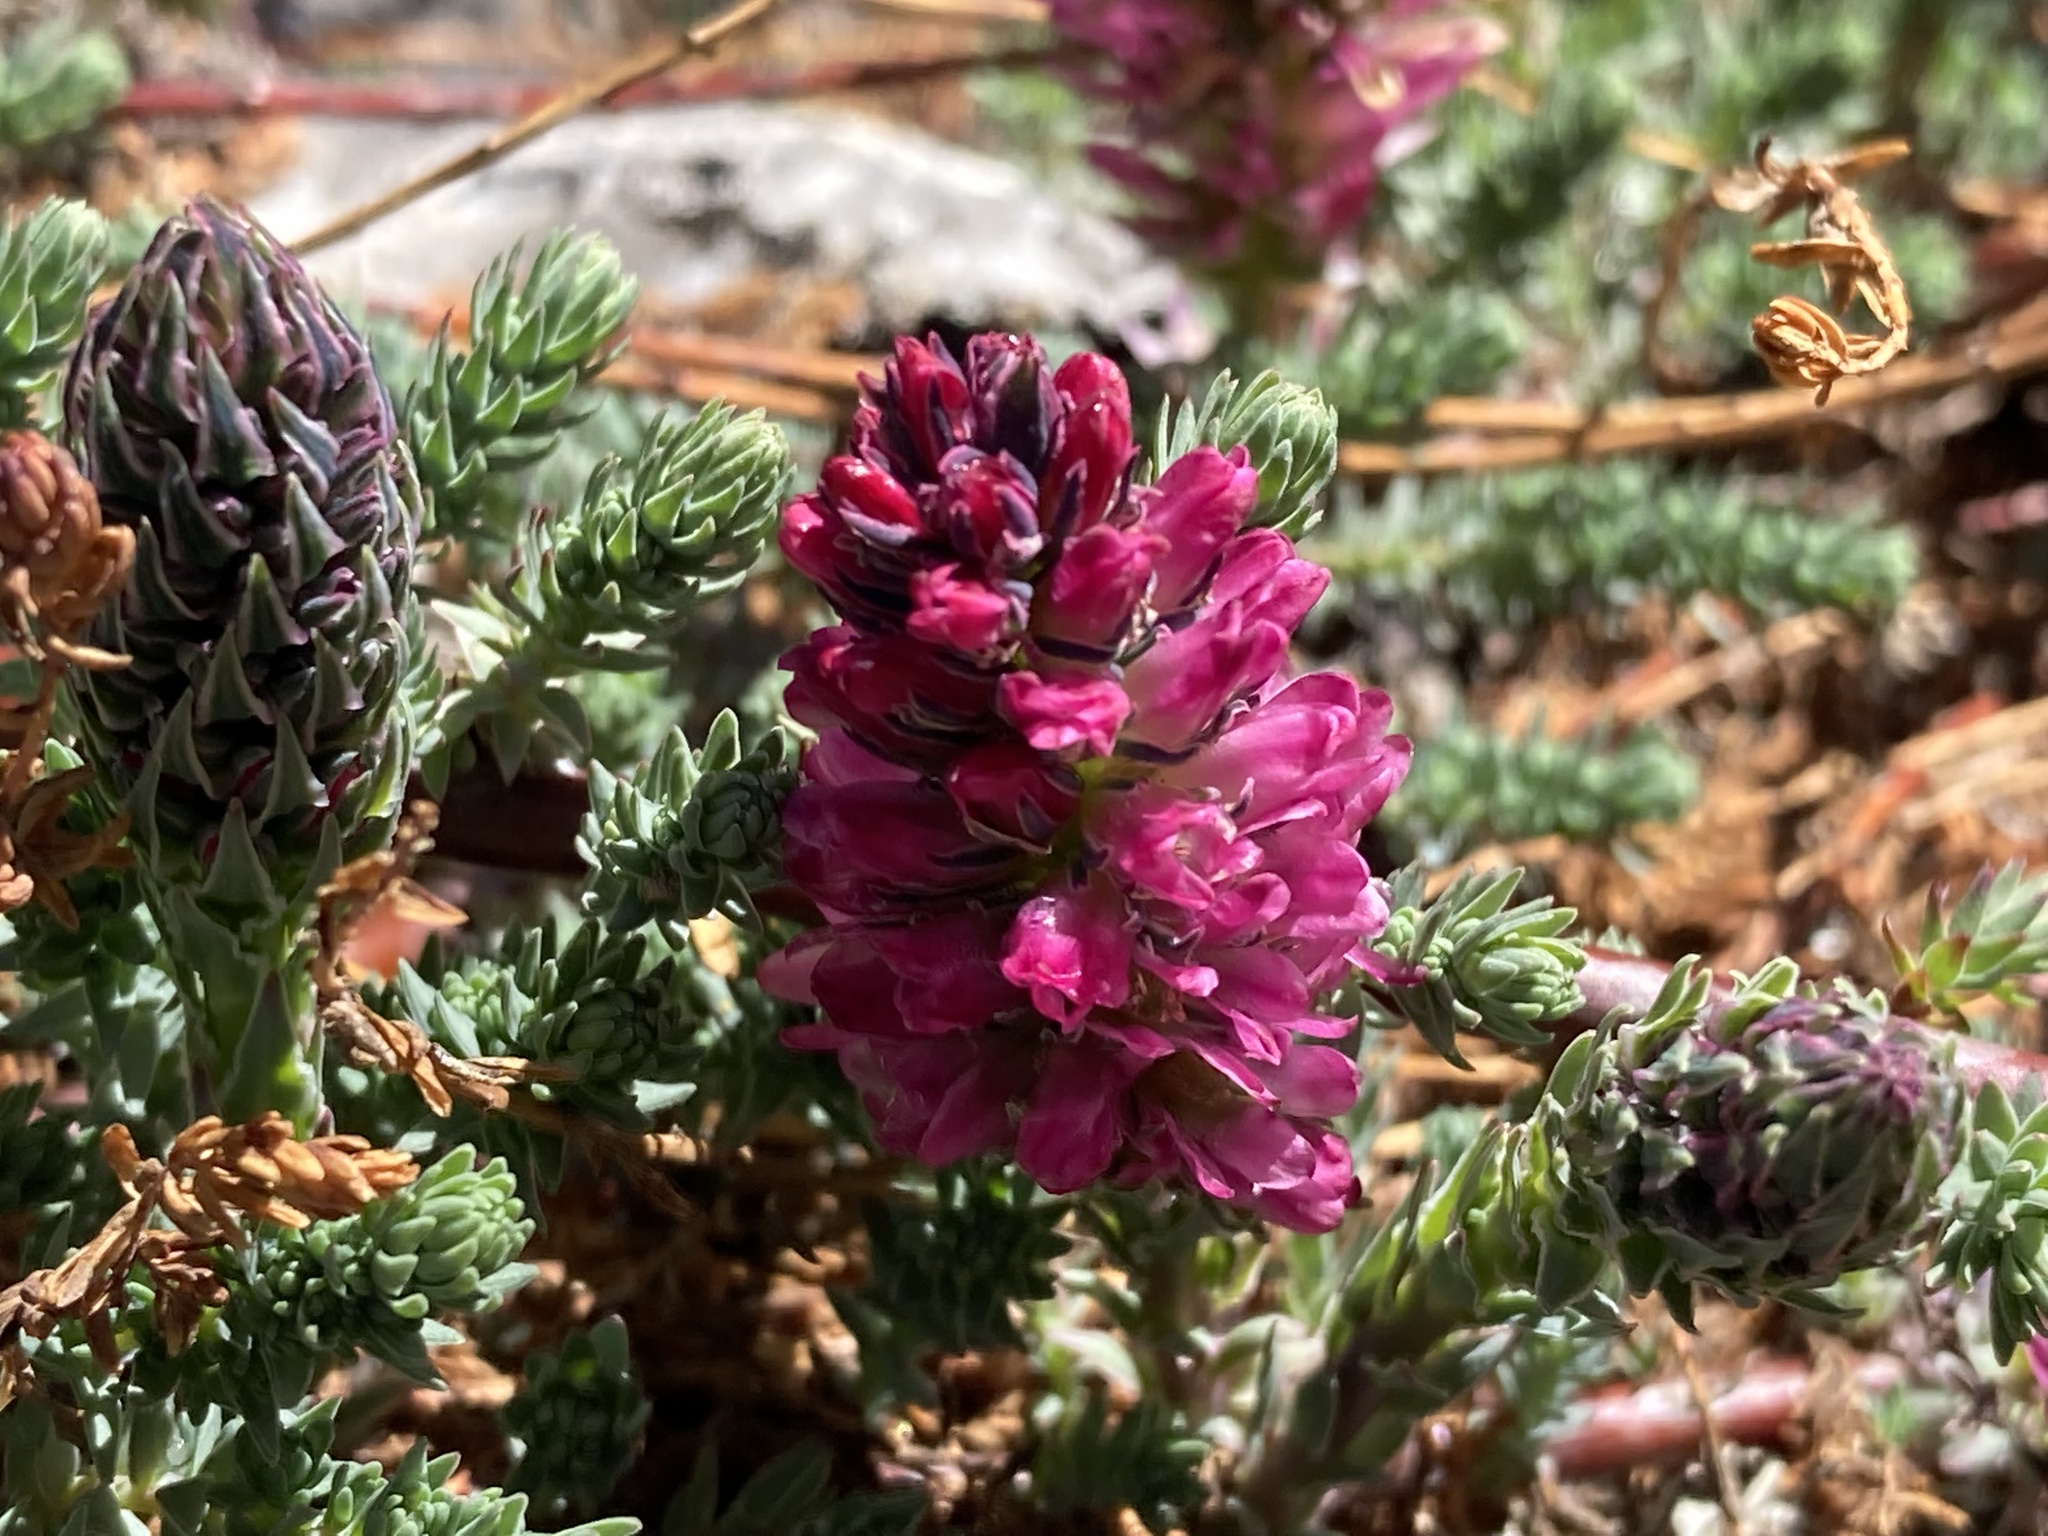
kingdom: Plantae
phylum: Tracheophyta
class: Magnoliopsida
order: Caryophyllales
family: Tamaricaceae
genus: Myricaria
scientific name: Myricaria rosea
